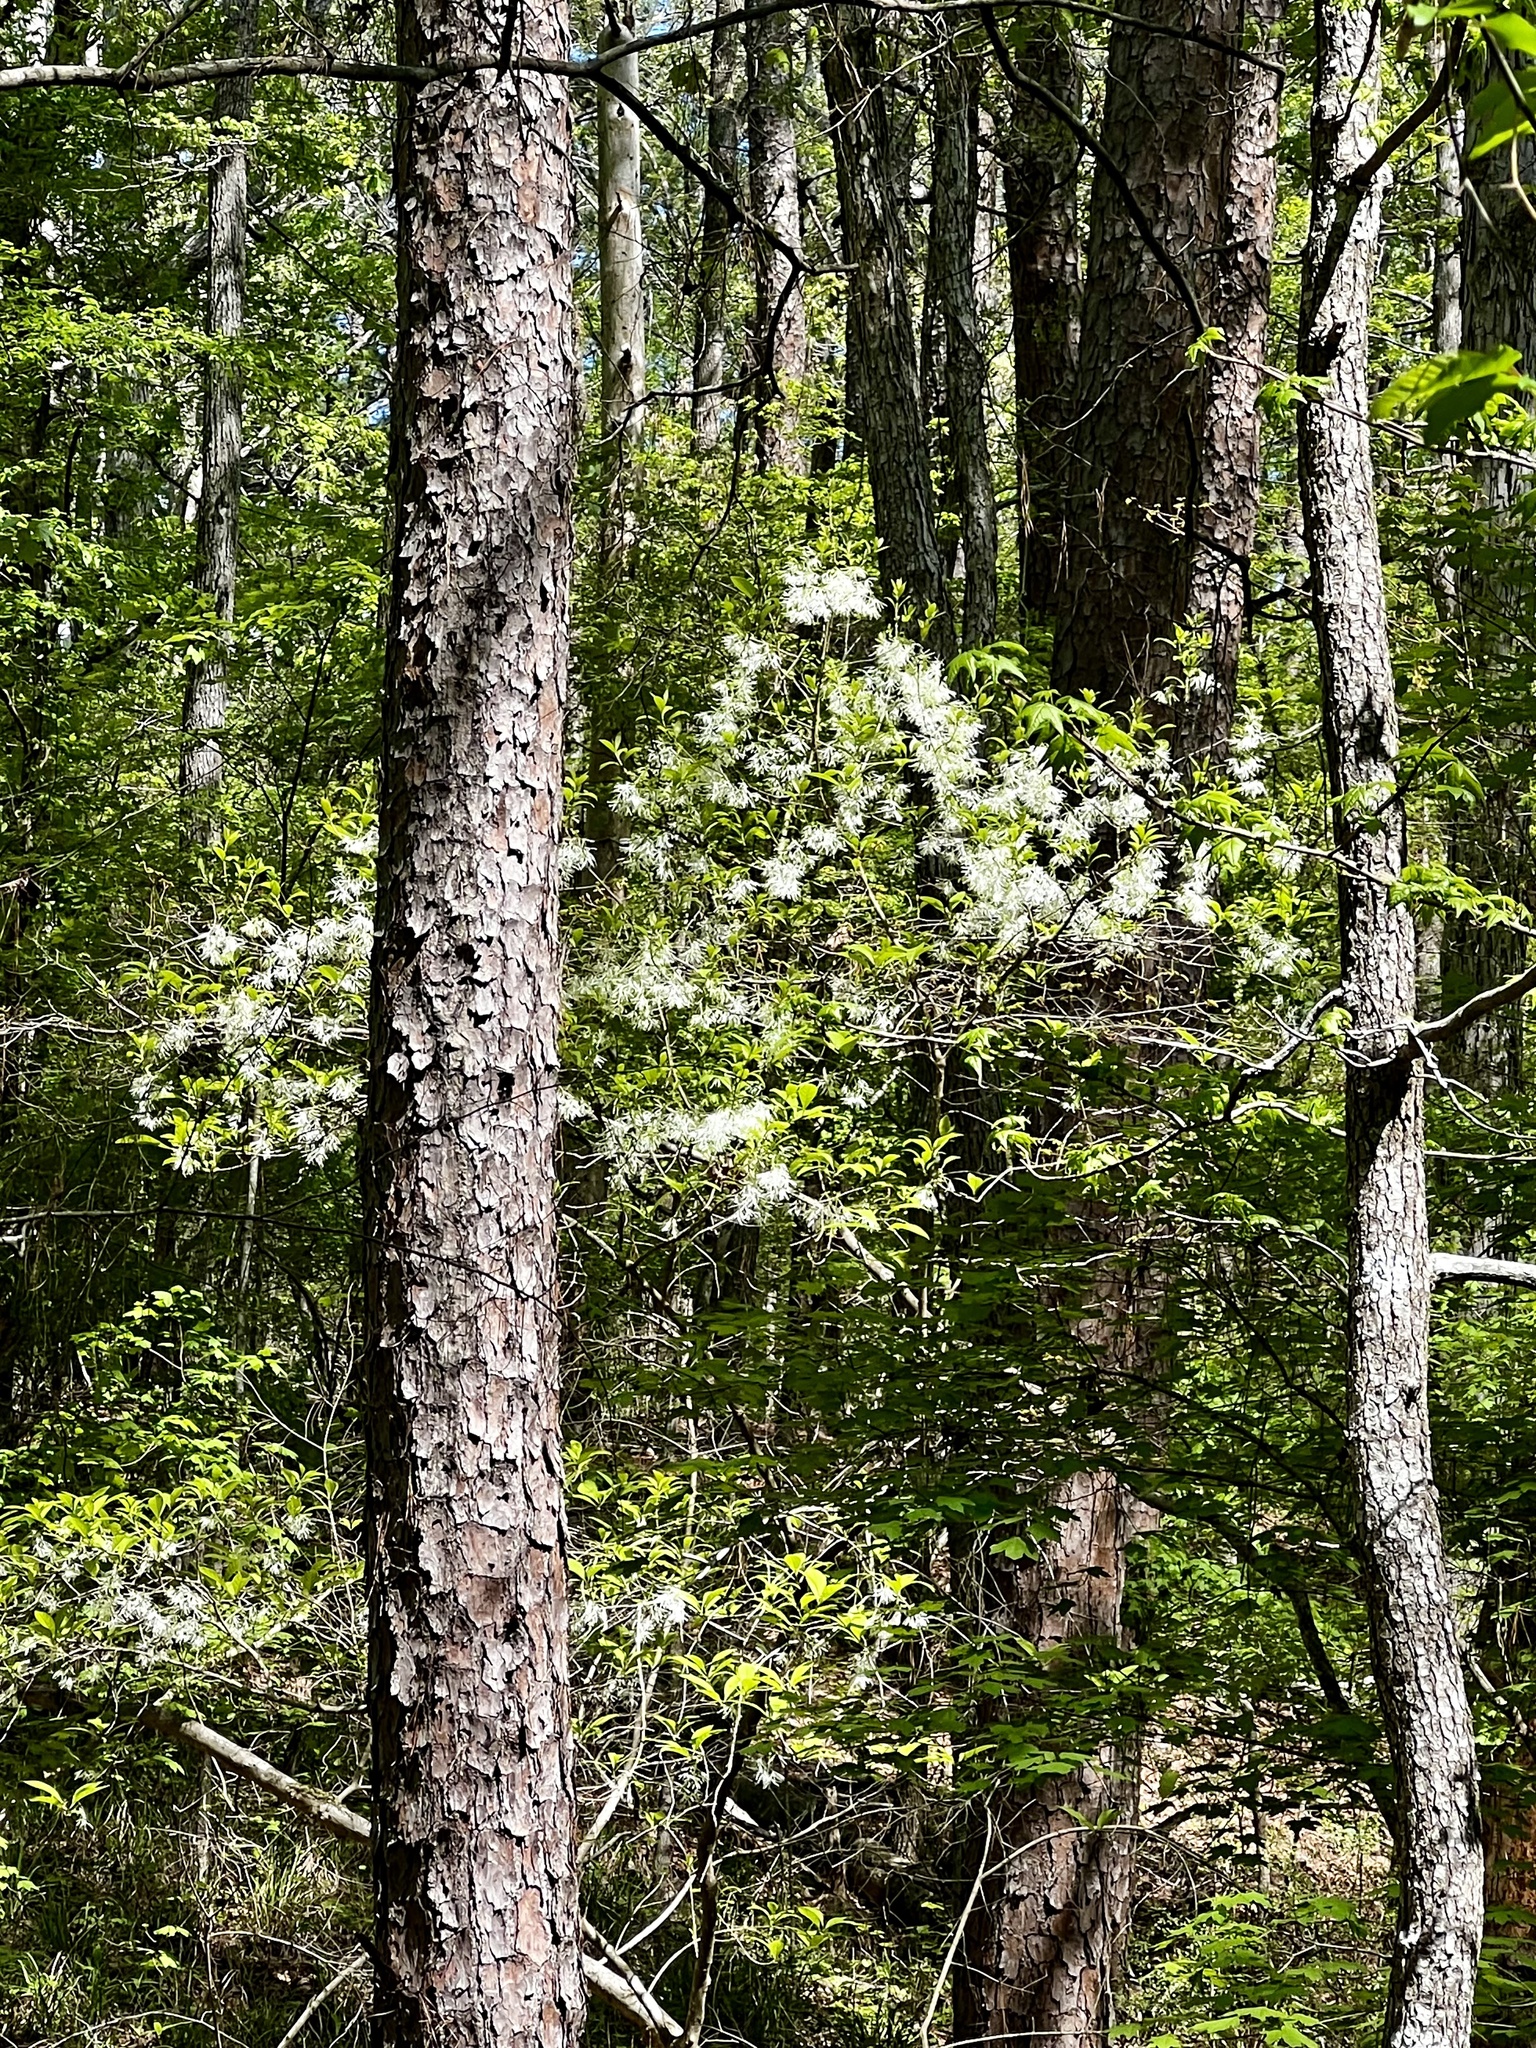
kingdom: Plantae
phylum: Tracheophyta
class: Magnoliopsida
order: Lamiales
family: Oleaceae
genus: Chionanthus
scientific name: Chionanthus virginicus
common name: American fringetree
